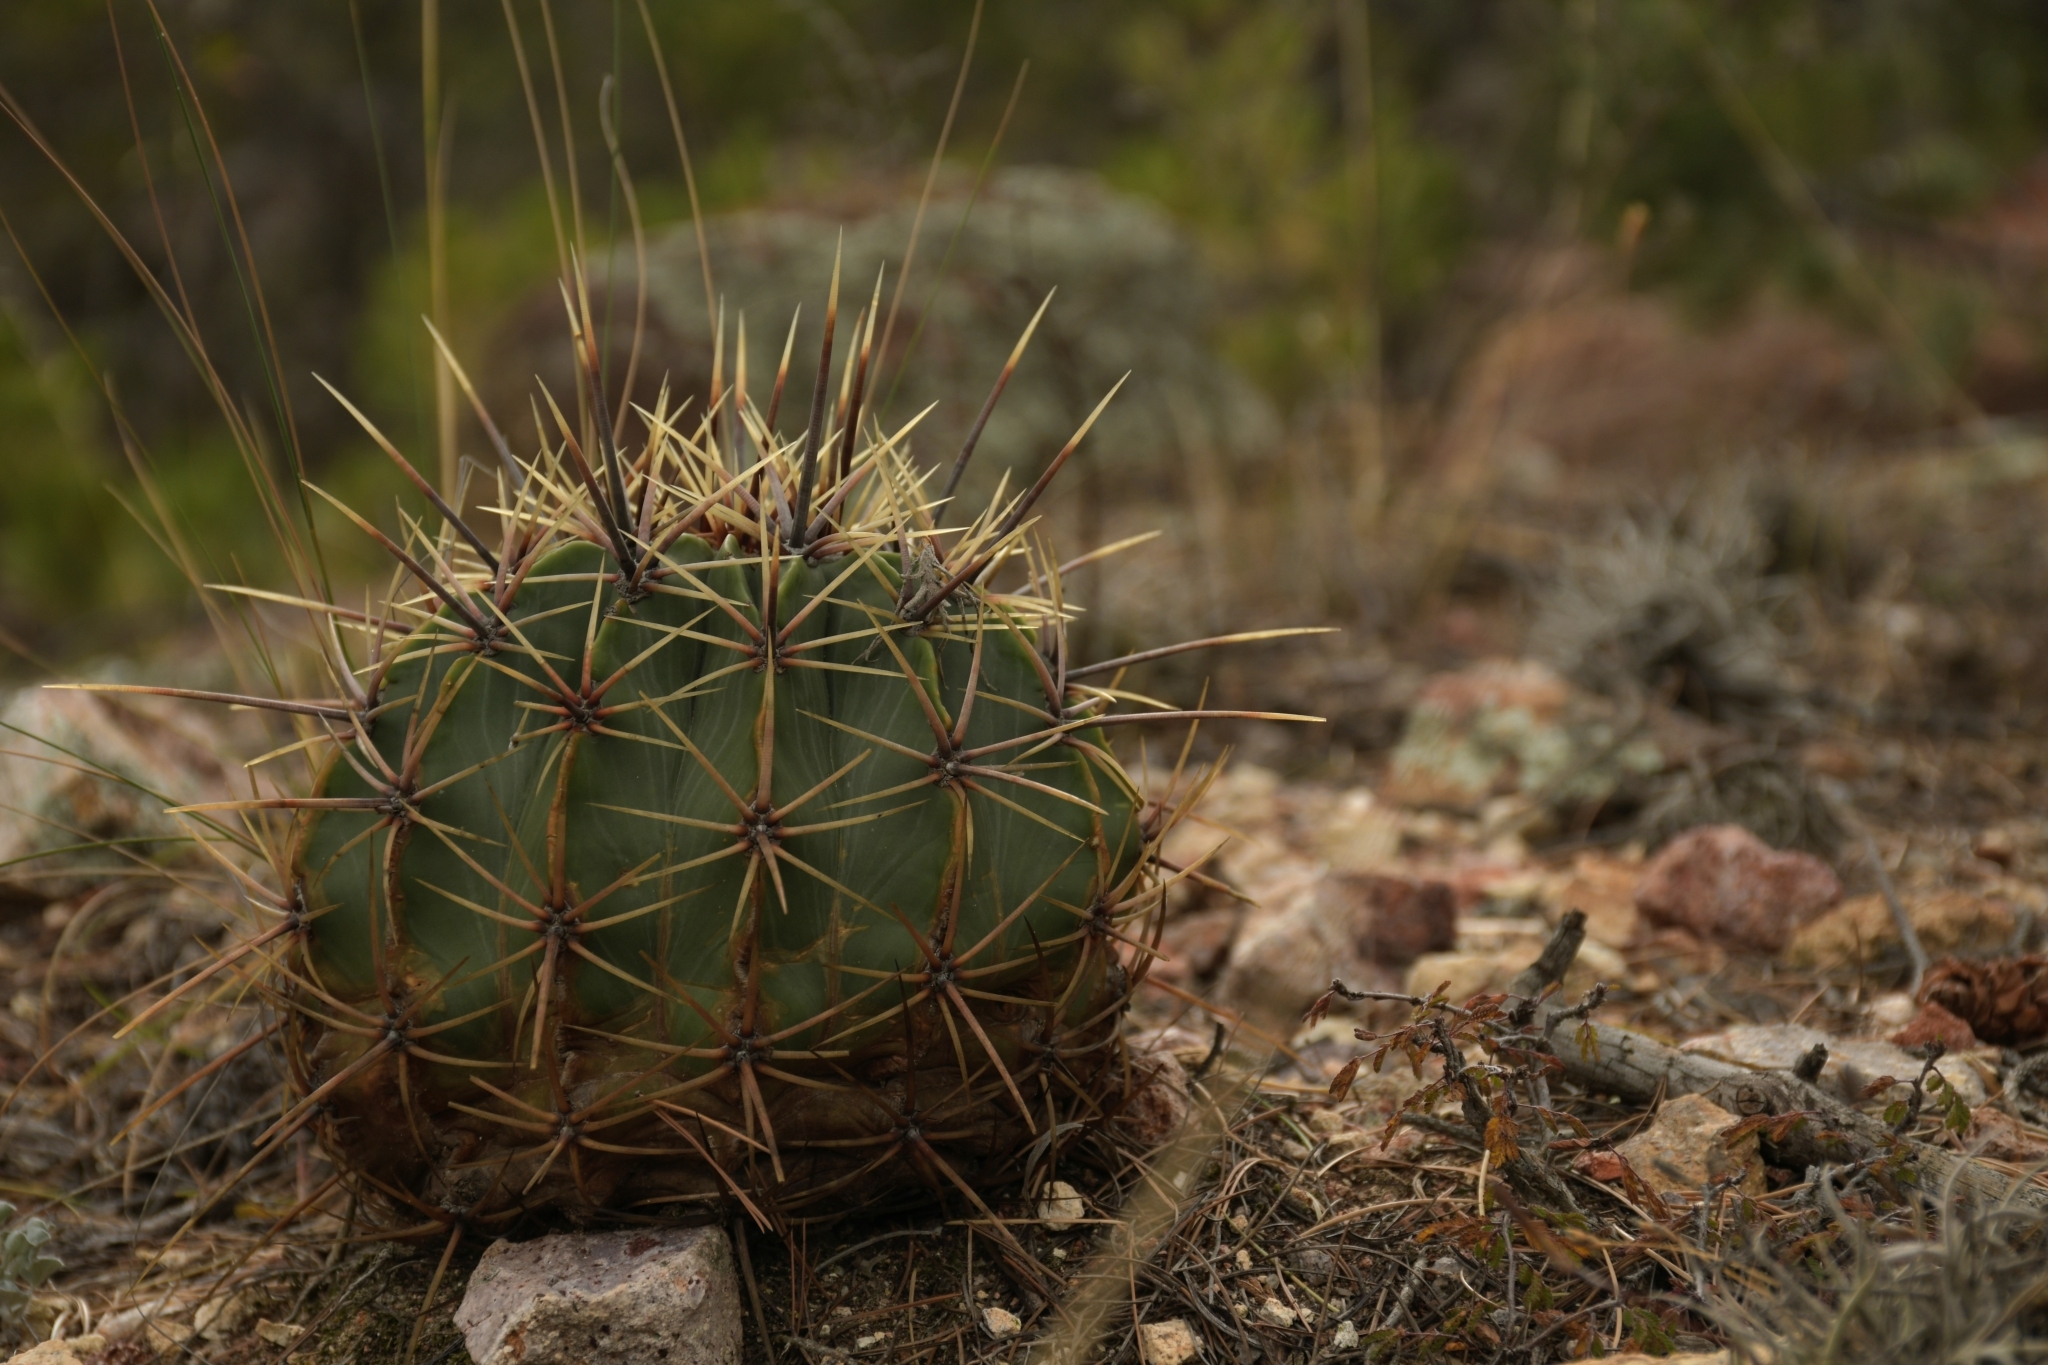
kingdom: Plantae
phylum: Tracheophyta
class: Magnoliopsida
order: Caryophyllales
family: Cactaceae
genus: Bisnaga
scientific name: Bisnaga histrix
